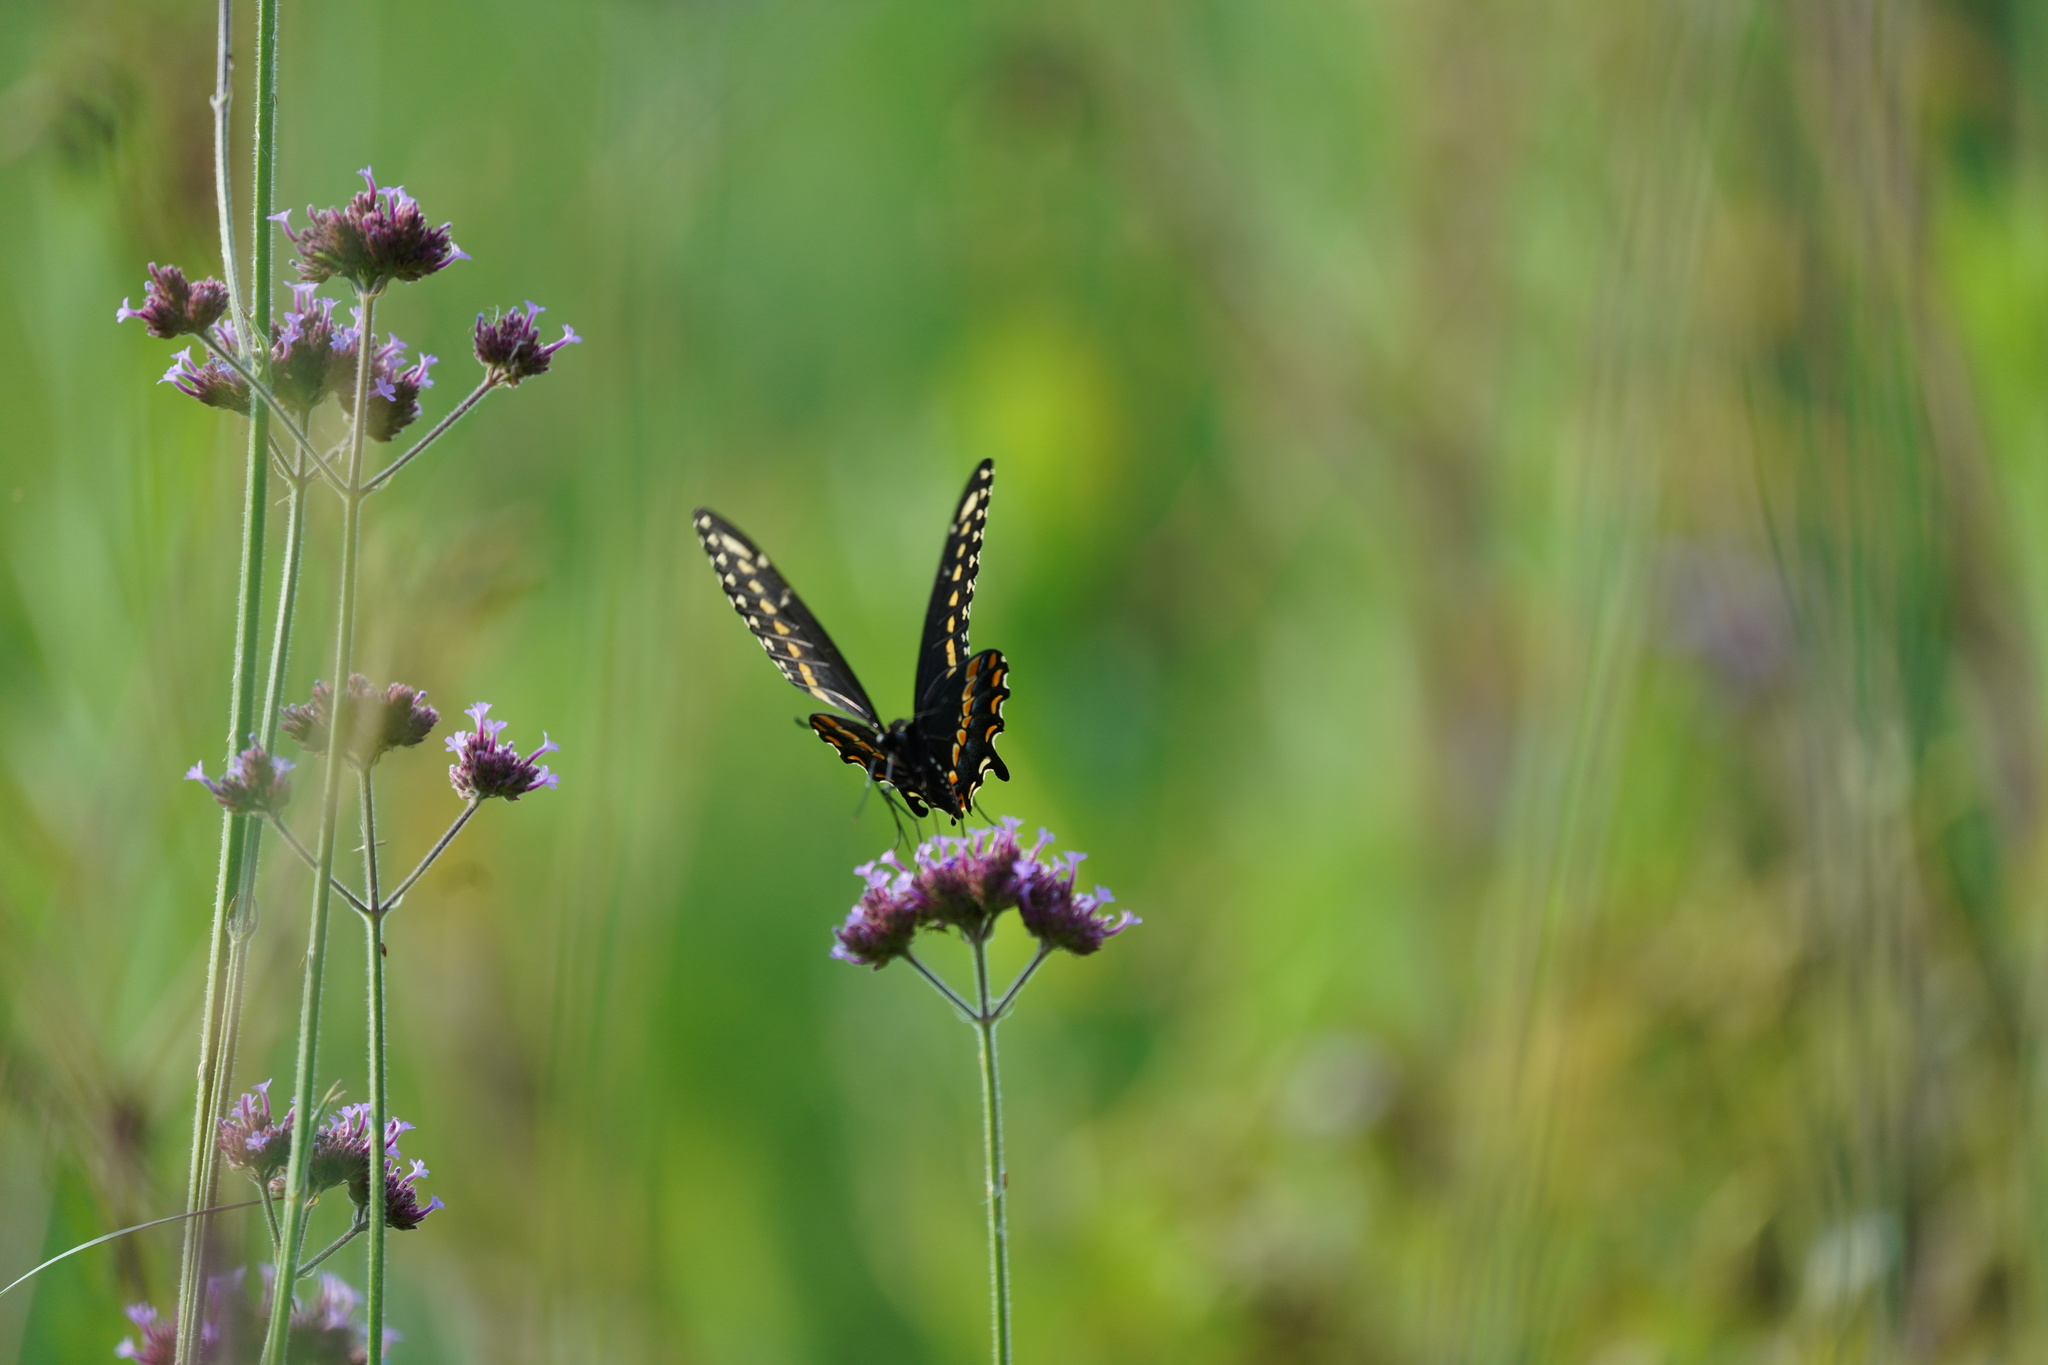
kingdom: Animalia
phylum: Arthropoda
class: Insecta
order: Lepidoptera
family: Papilionidae
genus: Papilio
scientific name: Papilio polyxenes
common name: Black swallowtail
